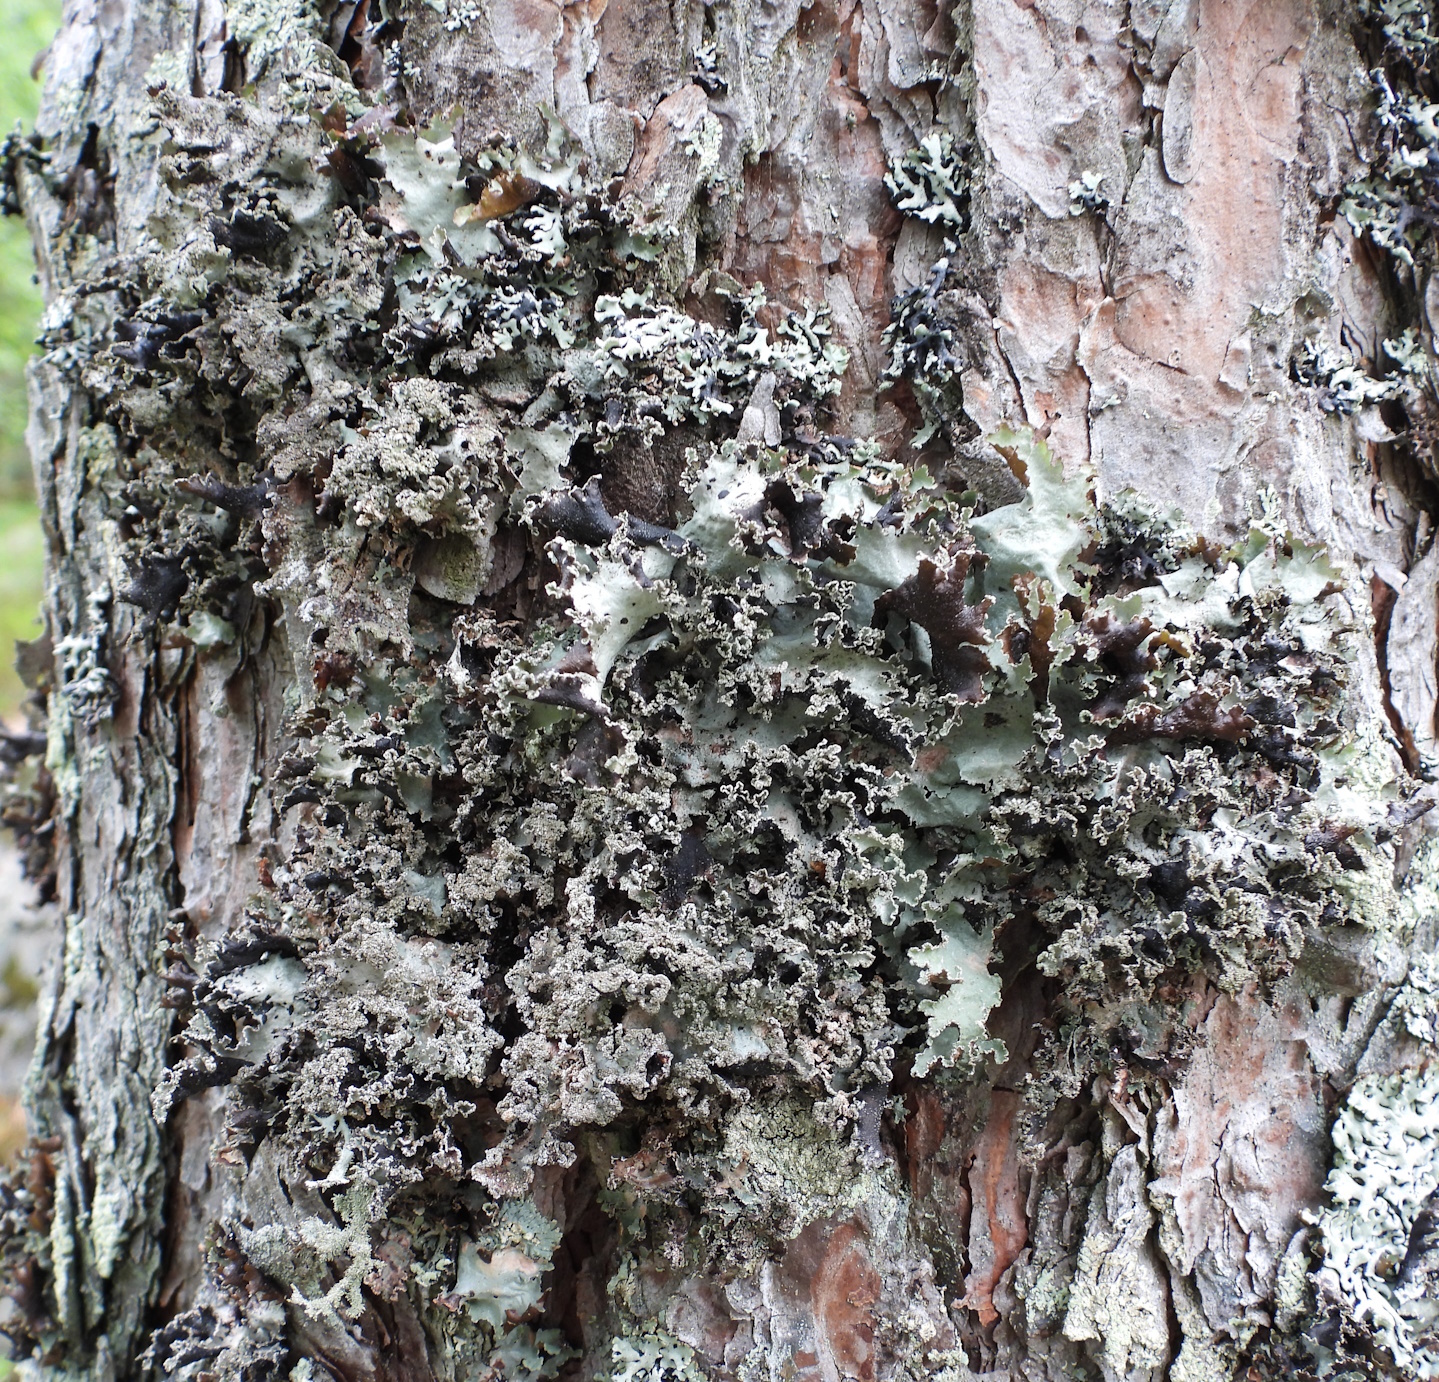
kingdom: Fungi
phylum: Ascomycota
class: Lecanoromycetes
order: Lecanorales
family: Parmeliaceae
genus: Platismatia
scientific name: Platismatia glauca
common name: Varied rag lichen
